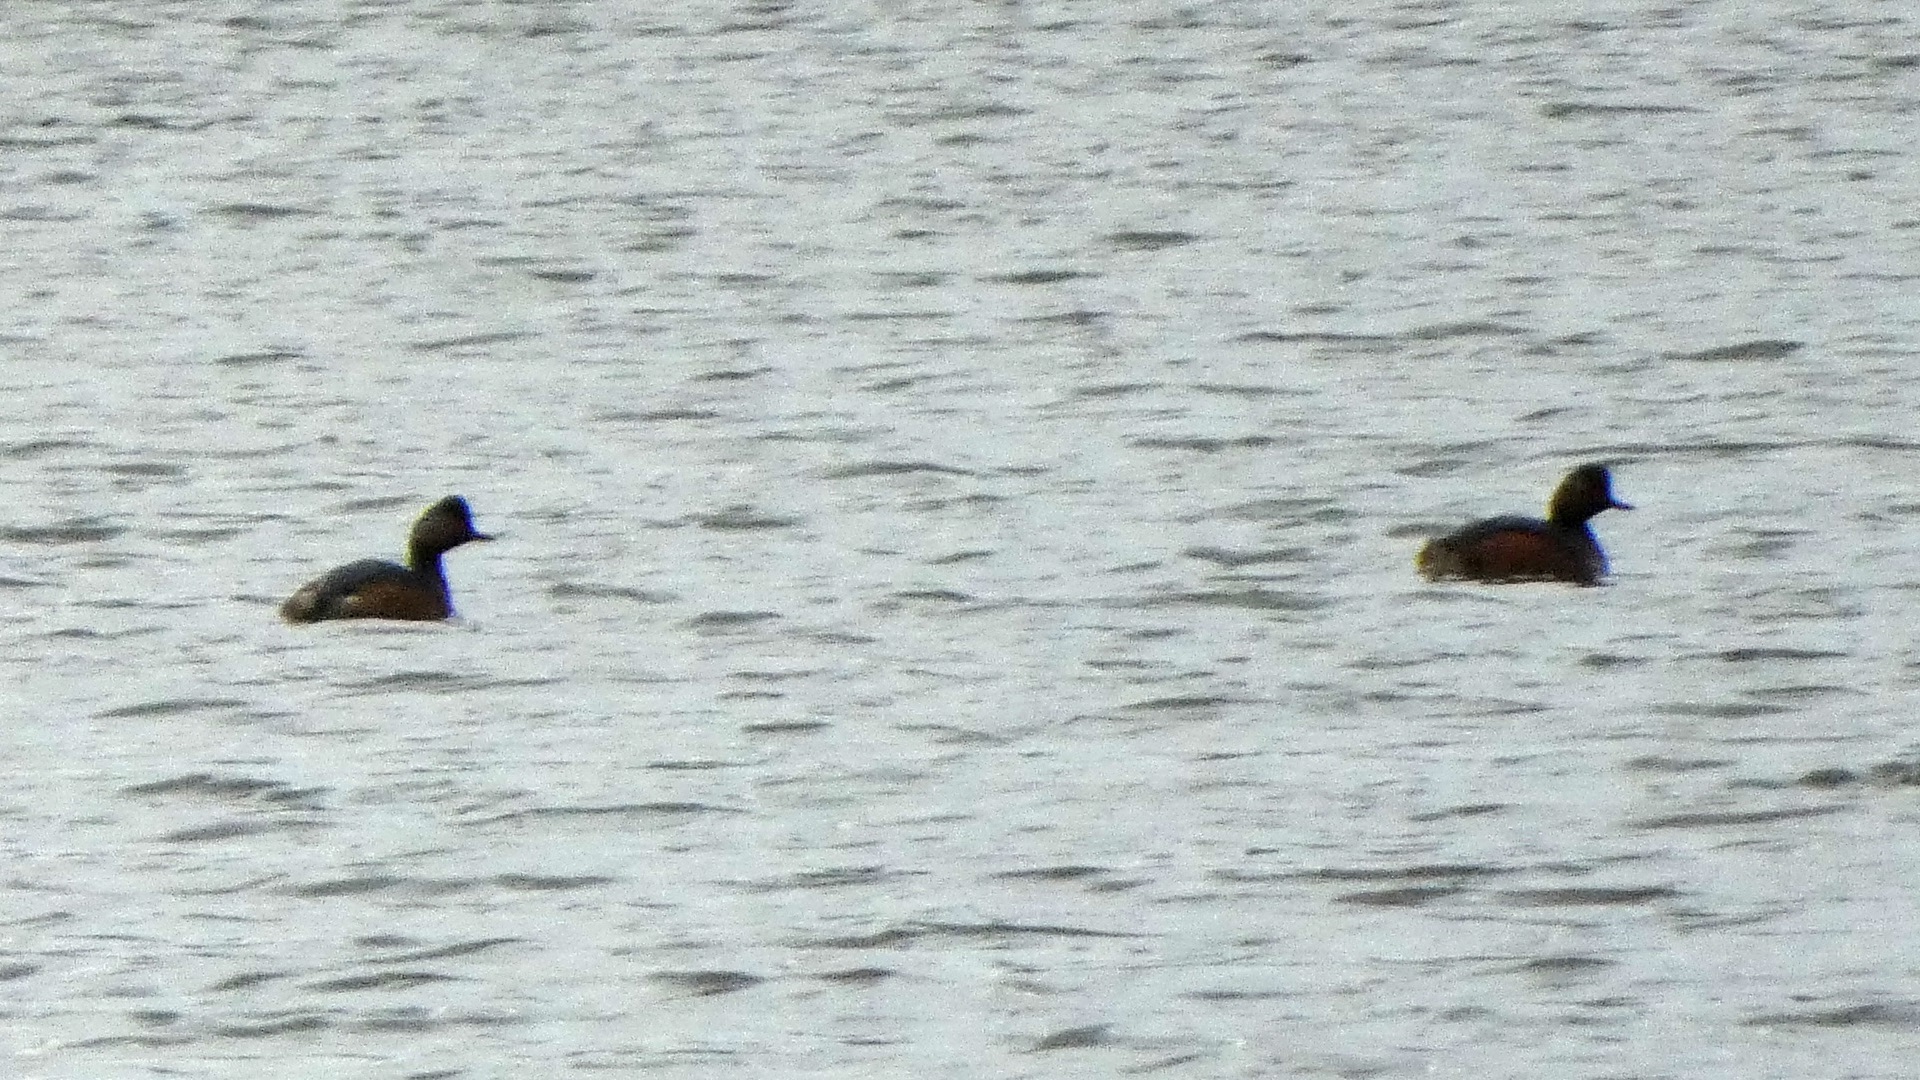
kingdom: Animalia
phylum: Chordata
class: Aves
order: Podicipediformes
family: Podicipedidae
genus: Podiceps
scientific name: Podiceps nigricollis
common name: Black-necked grebe
